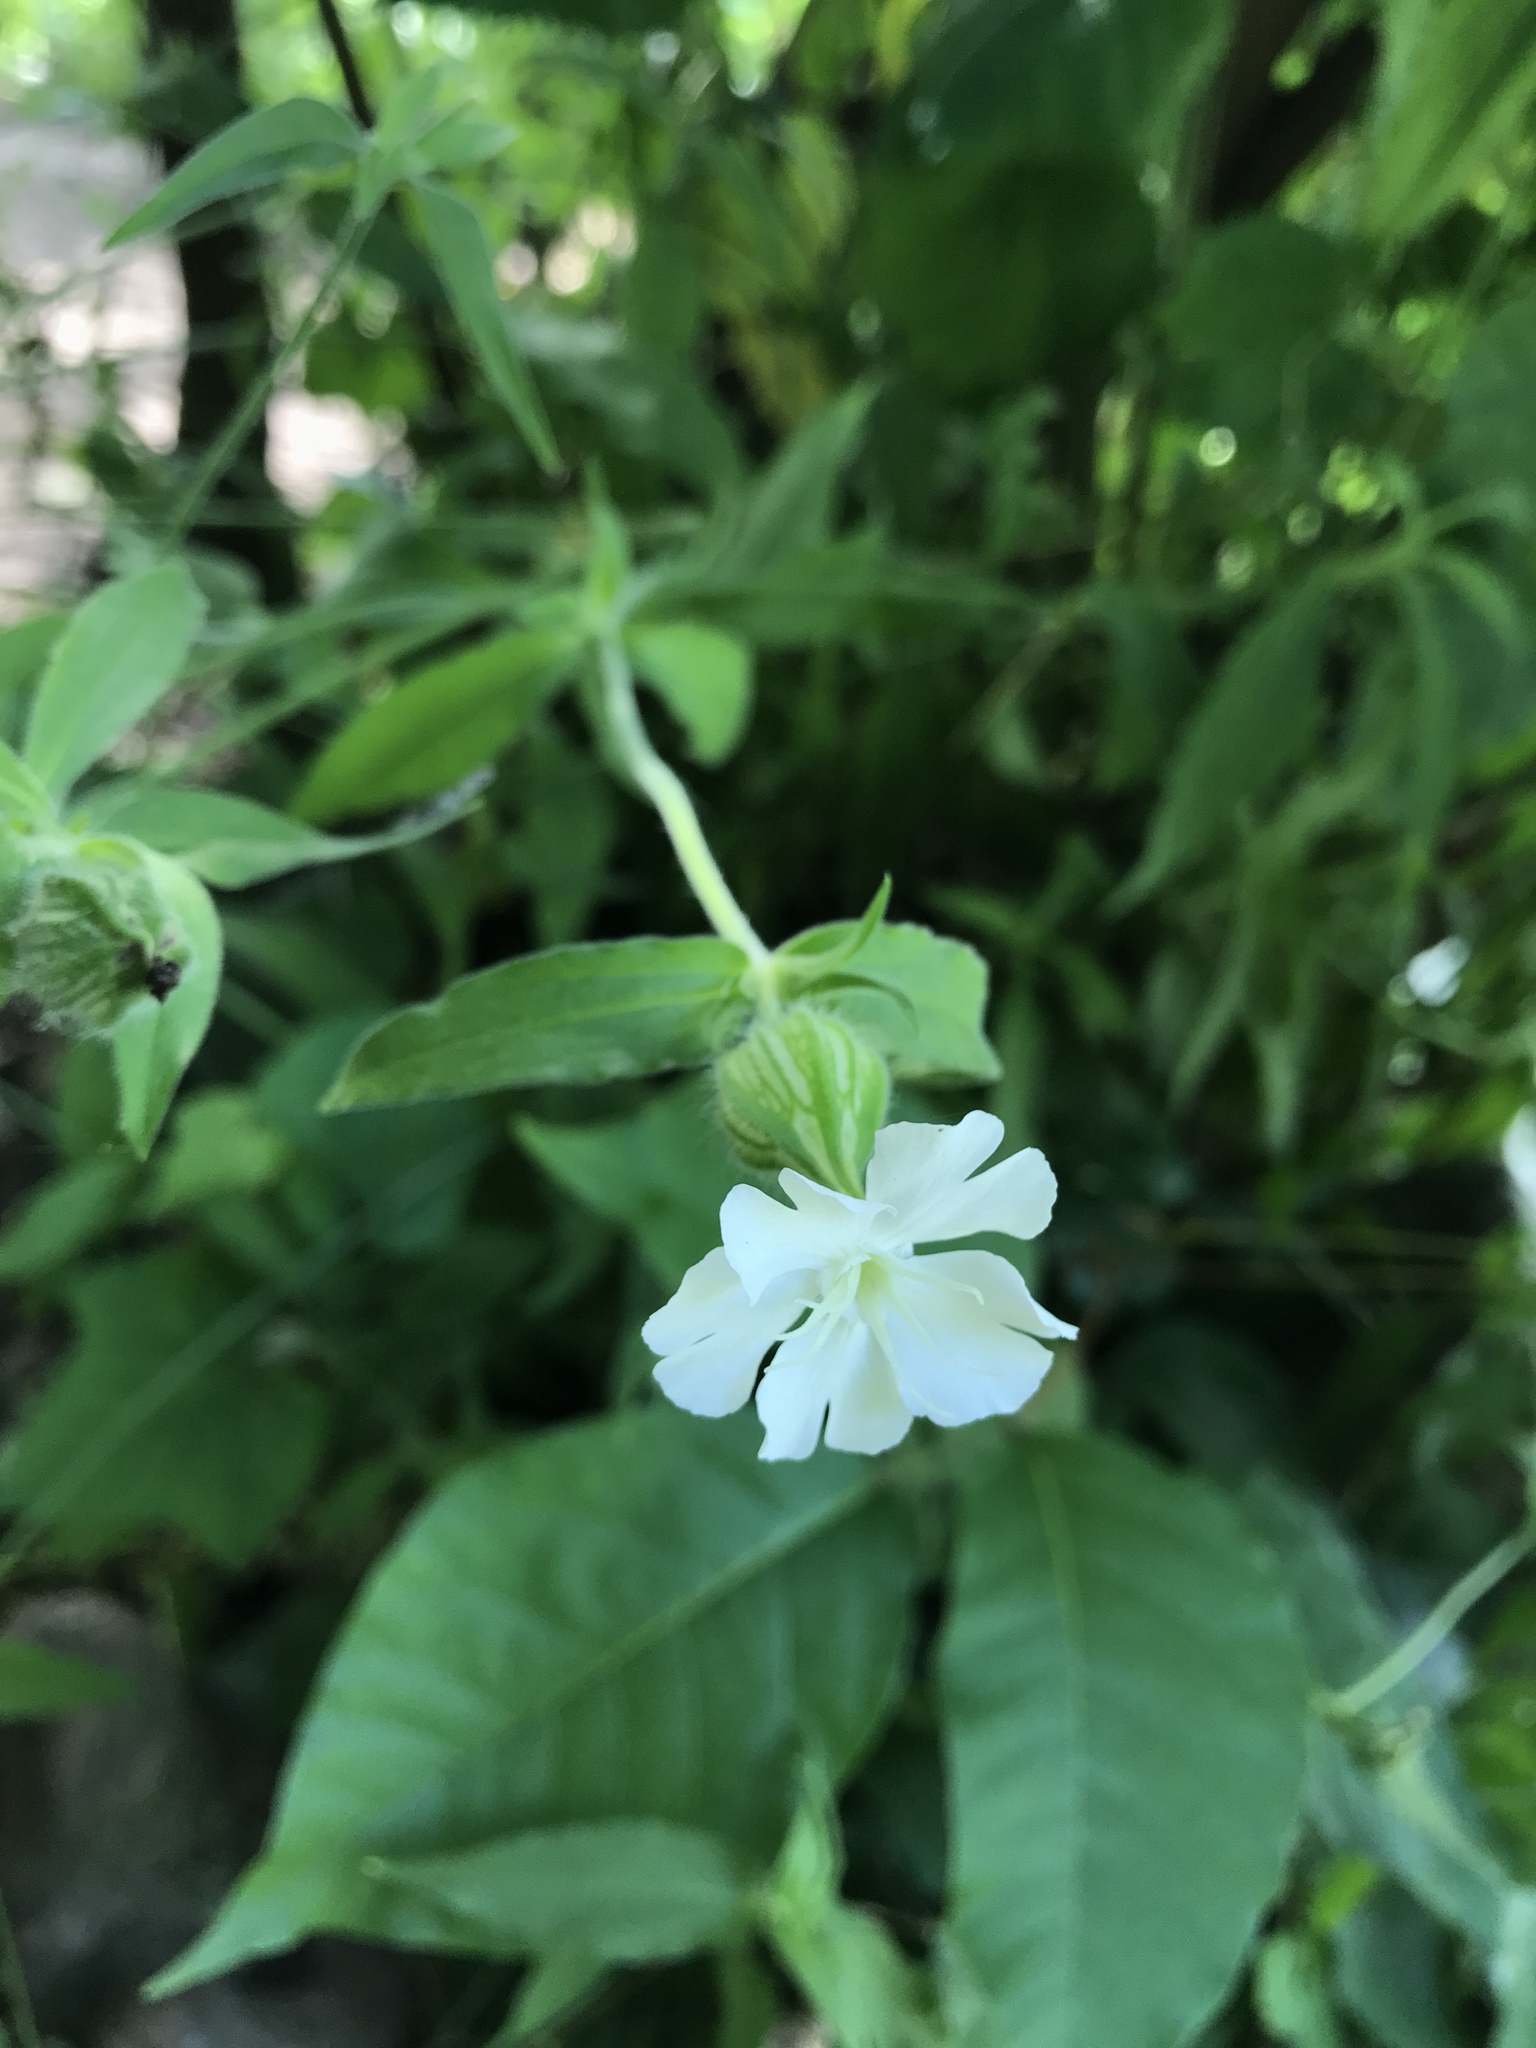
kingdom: Plantae
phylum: Tracheophyta
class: Magnoliopsida
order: Caryophyllales
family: Caryophyllaceae
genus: Silene
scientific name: Silene latifolia
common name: White campion
